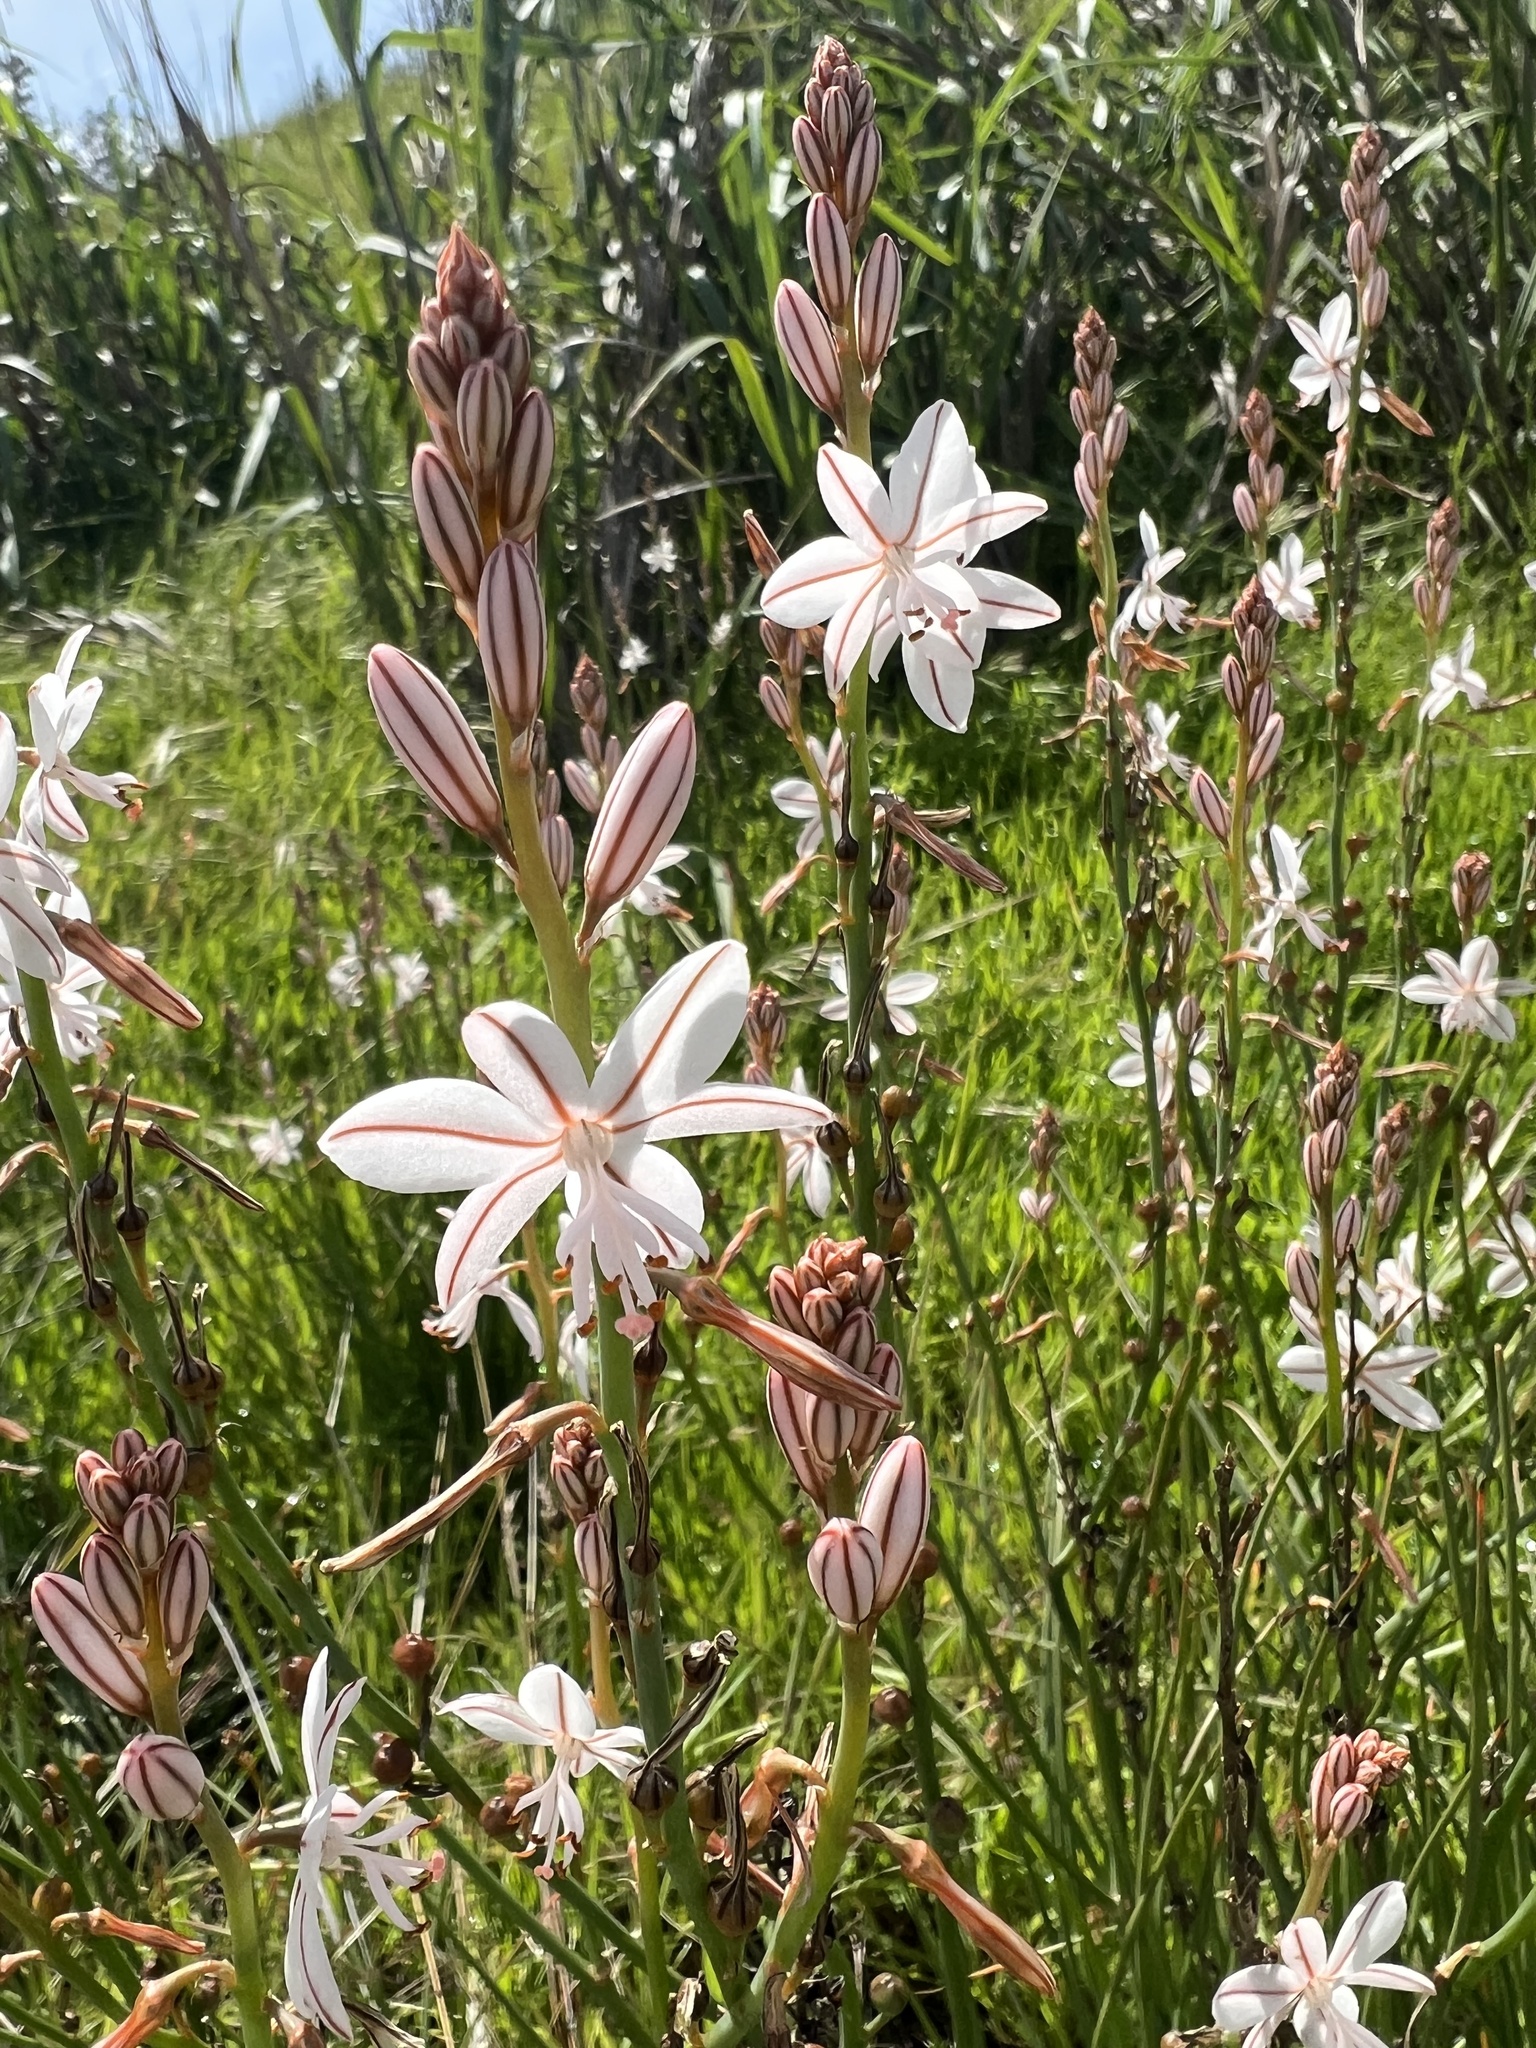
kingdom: Plantae
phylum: Tracheophyta
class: Liliopsida
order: Asparagales
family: Asphodelaceae
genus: Asphodelus
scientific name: Asphodelus fistulosus
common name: Onionweed
